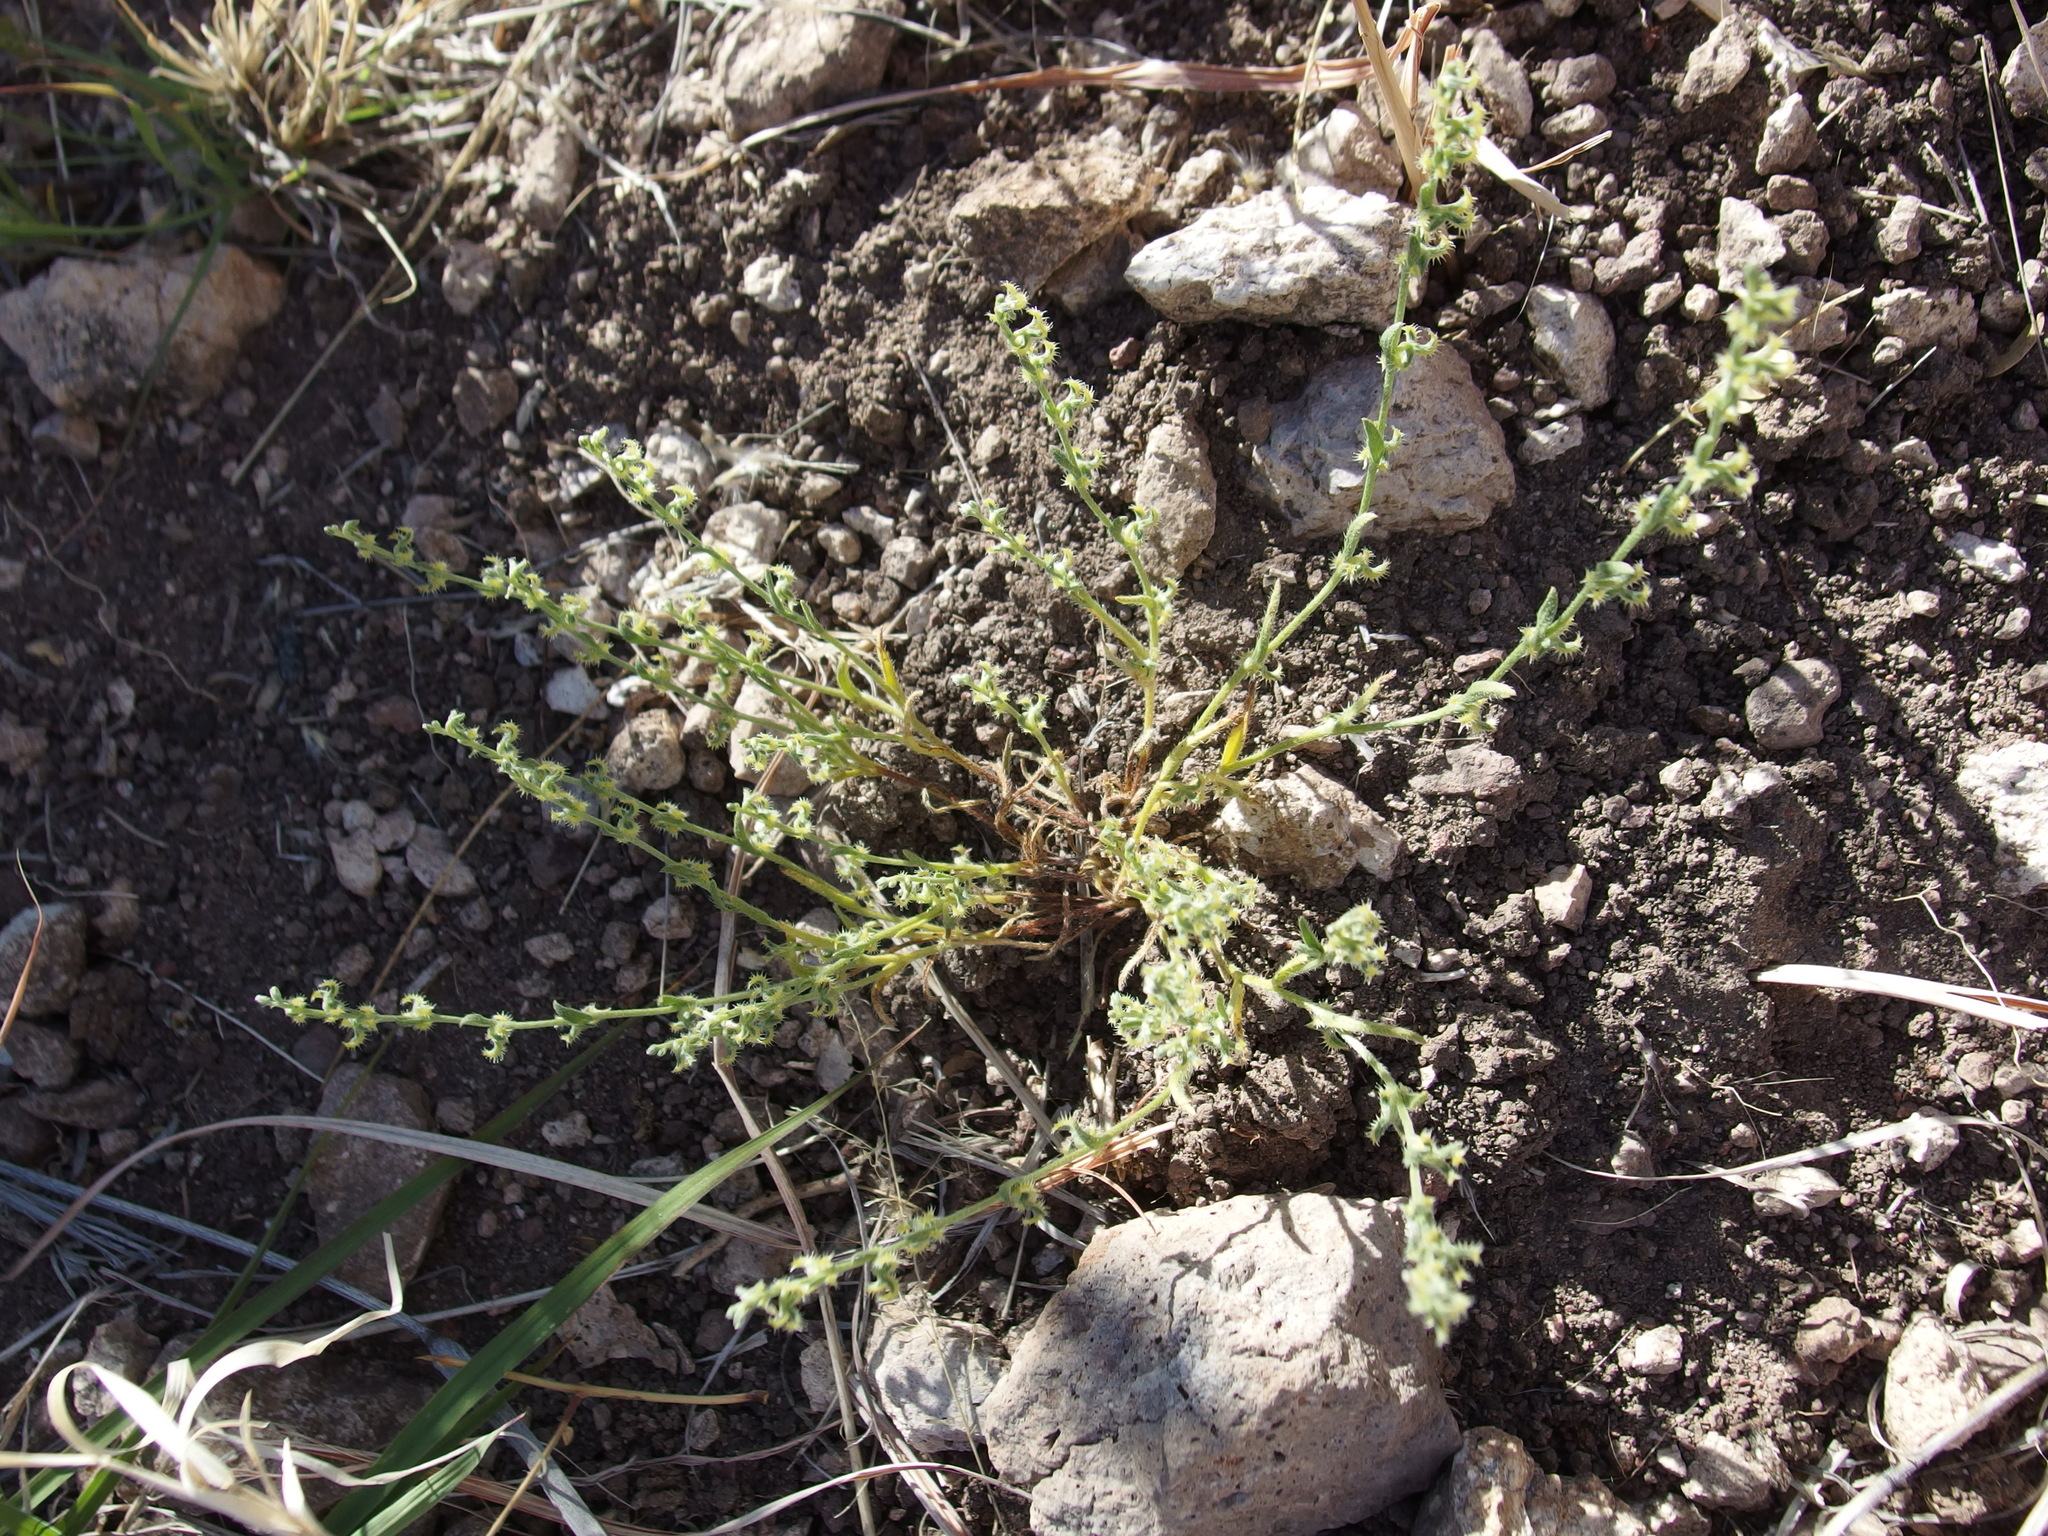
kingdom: Plantae
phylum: Tracheophyta
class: Magnoliopsida
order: Boraginales
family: Boraginaceae
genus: Pectocarya
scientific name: Pectocarya recurvata
